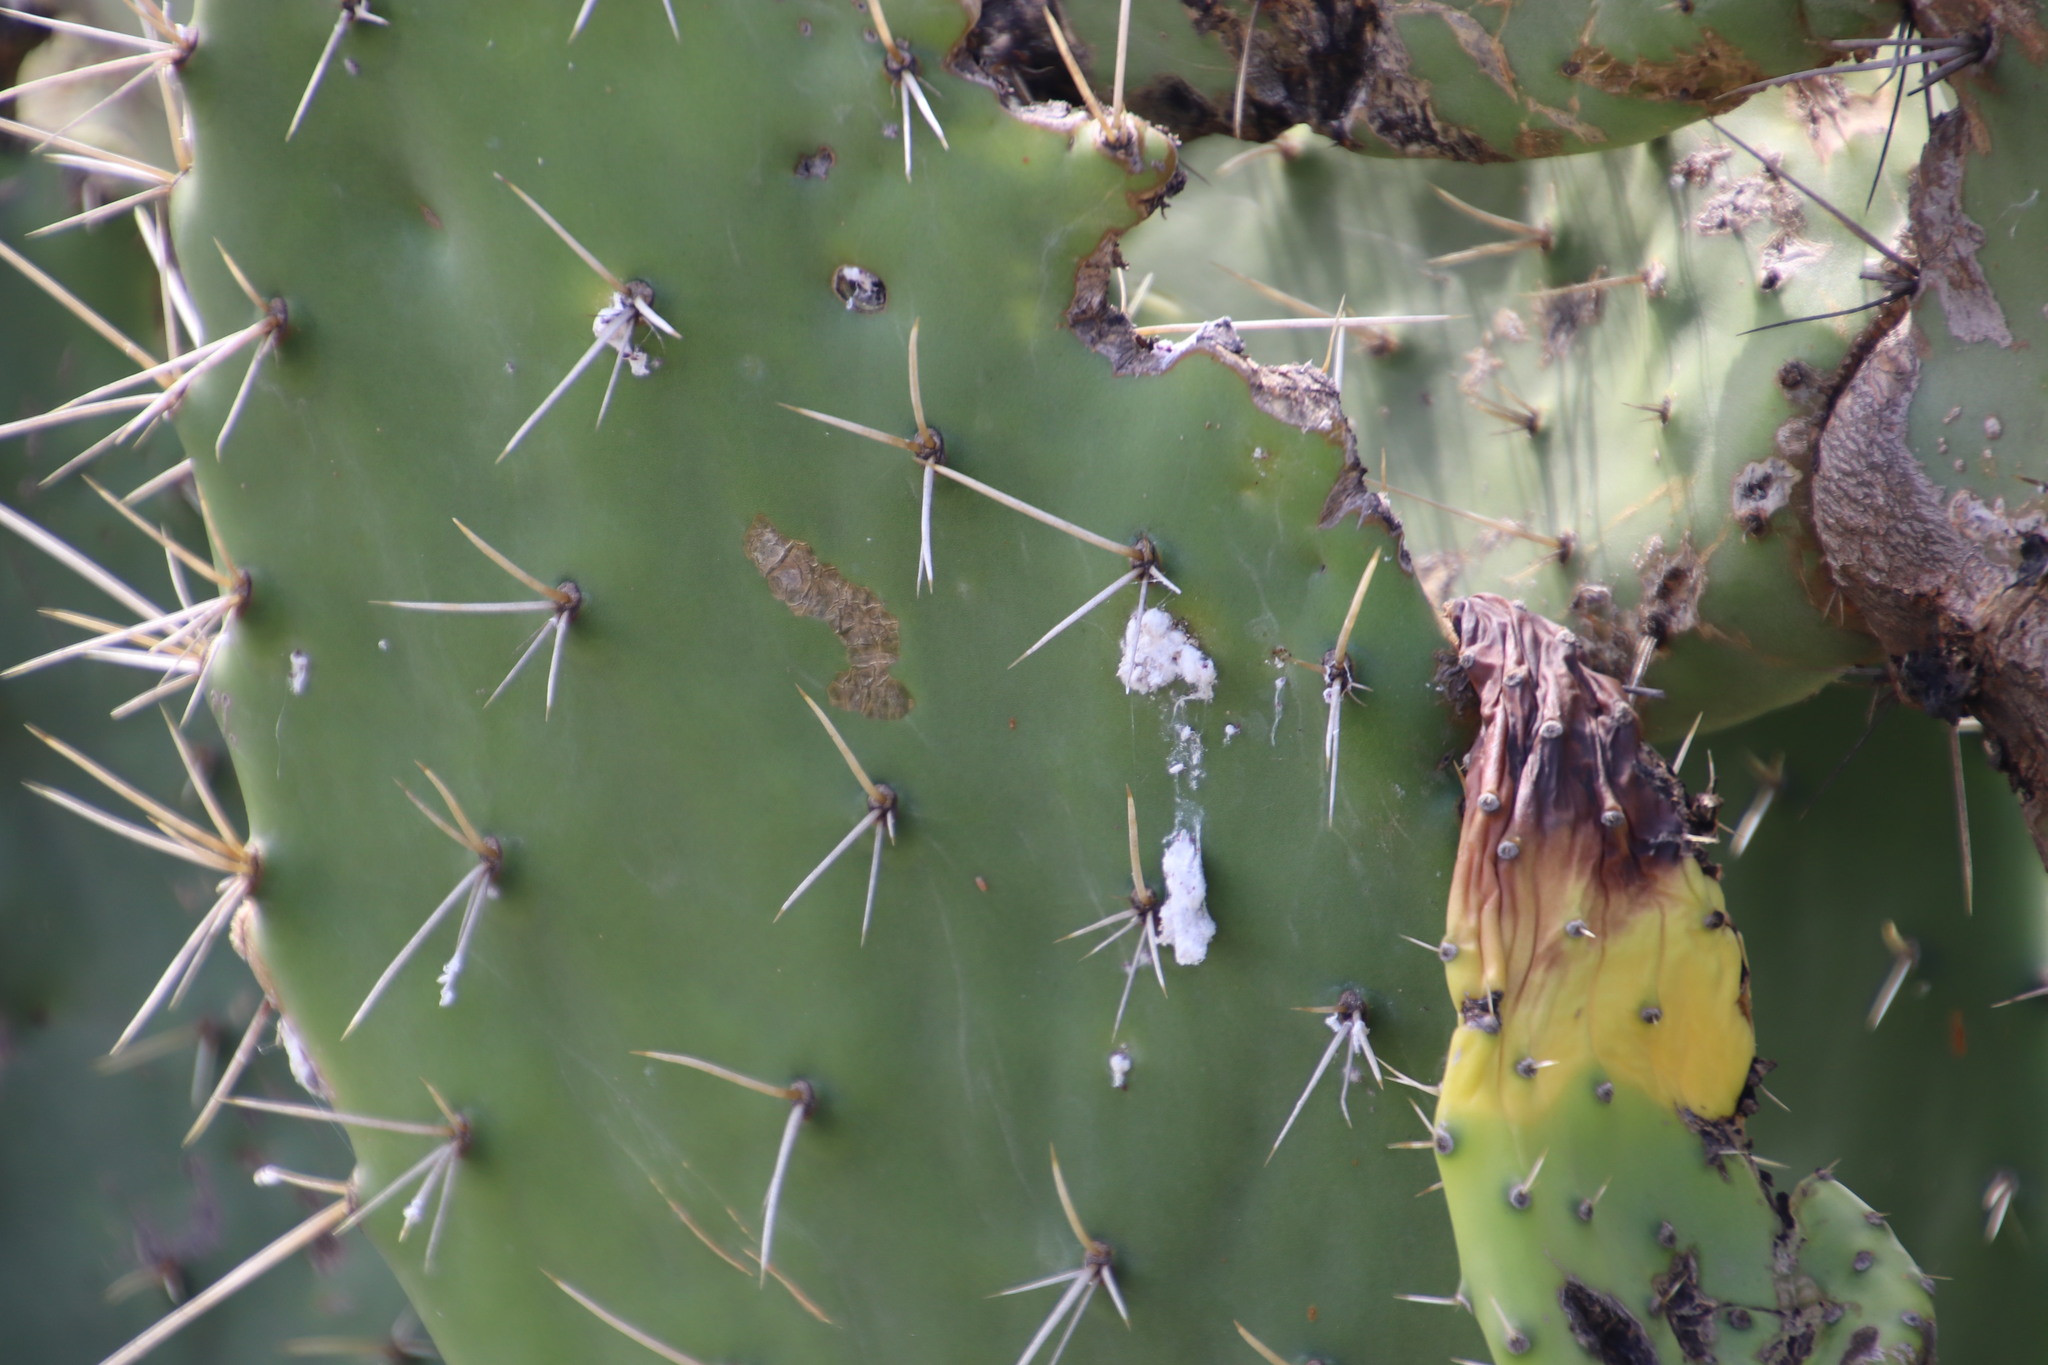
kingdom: Plantae
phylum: Tracheophyta
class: Magnoliopsida
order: Caryophyllales
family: Cactaceae
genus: Opuntia
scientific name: Opuntia ficus-indica
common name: Barbary fig
